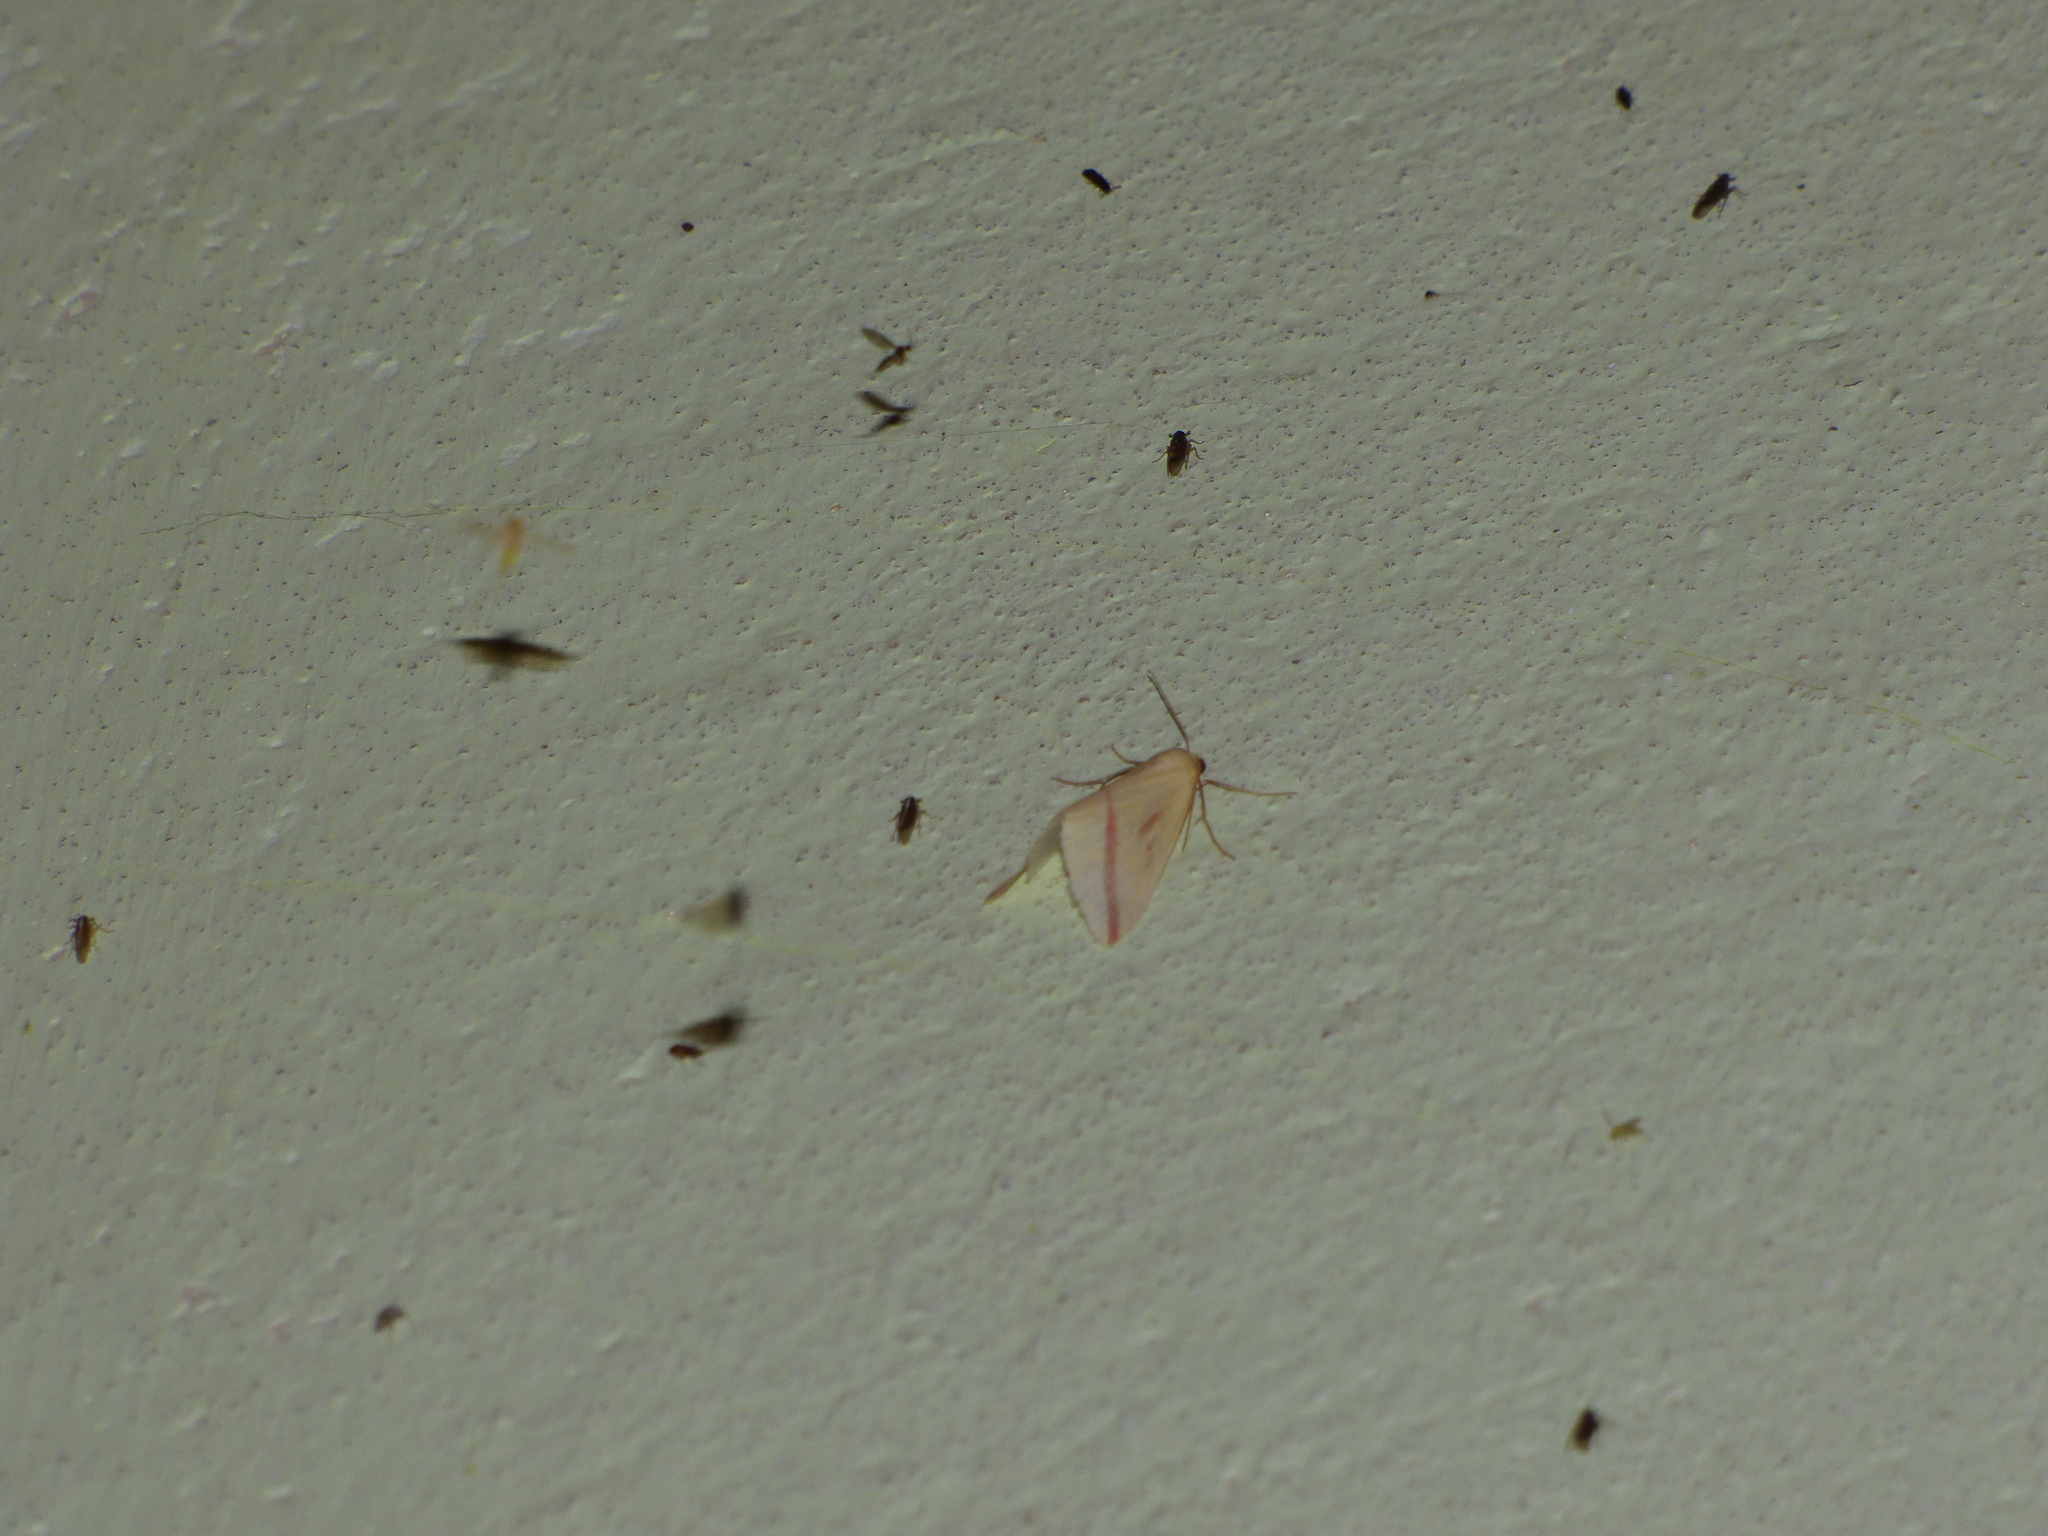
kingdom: Animalia
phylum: Arthropoda
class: Insecta
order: Lepidoptera
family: Geometridae
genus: Rhodometra
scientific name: Rhodometra sacraria
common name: Vestal
